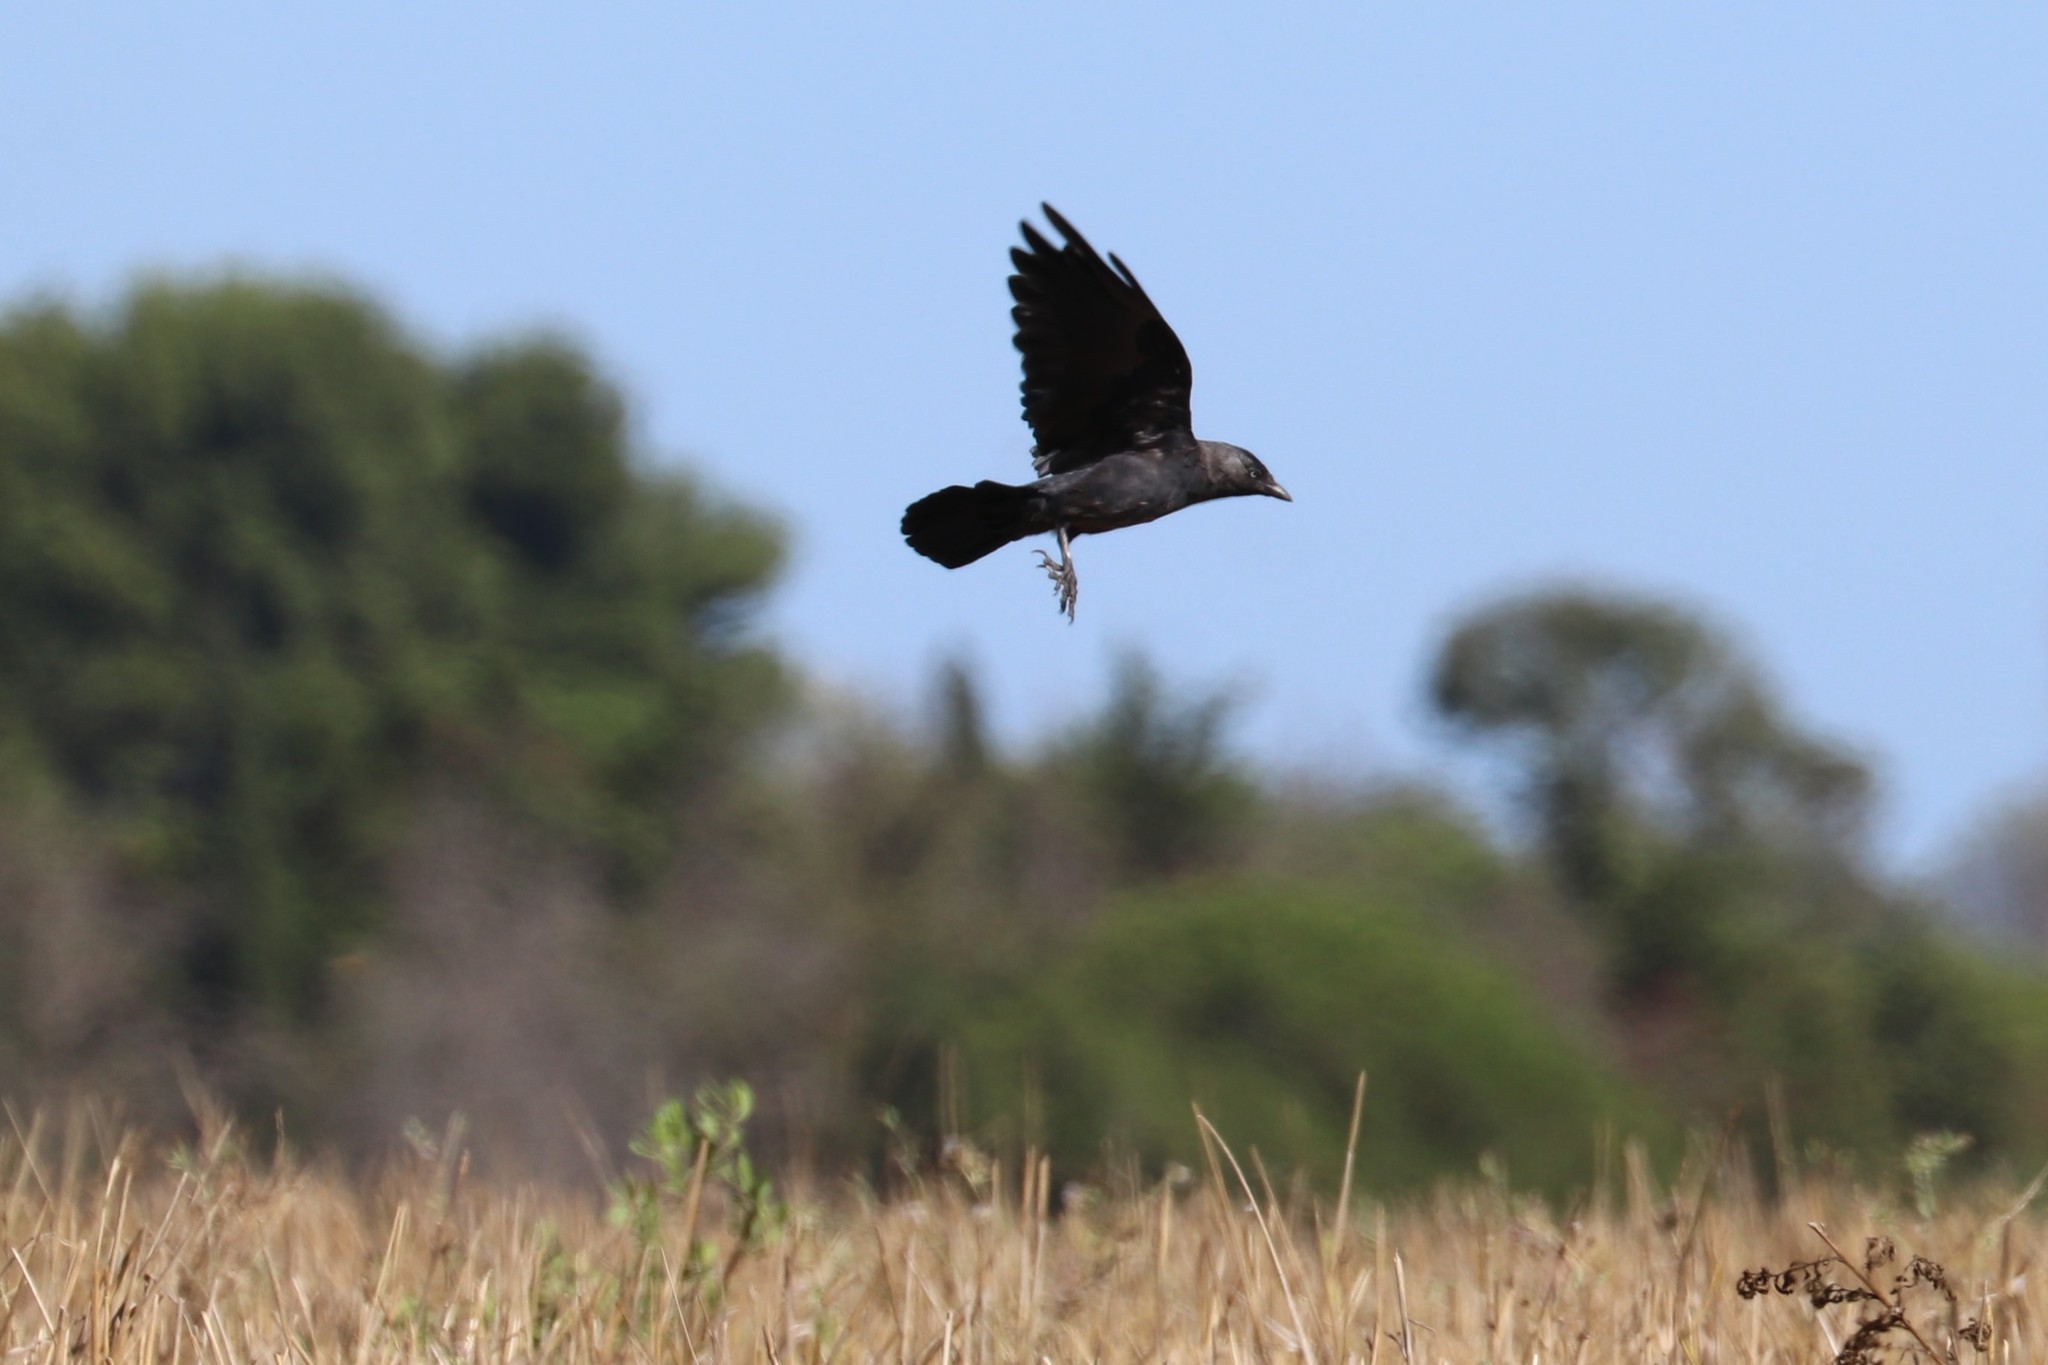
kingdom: Animalia
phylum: Chordata
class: Aves
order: Passeriformes
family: Corvidae
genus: Coloeus
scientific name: Coloeus monedula
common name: Western jackdaw
